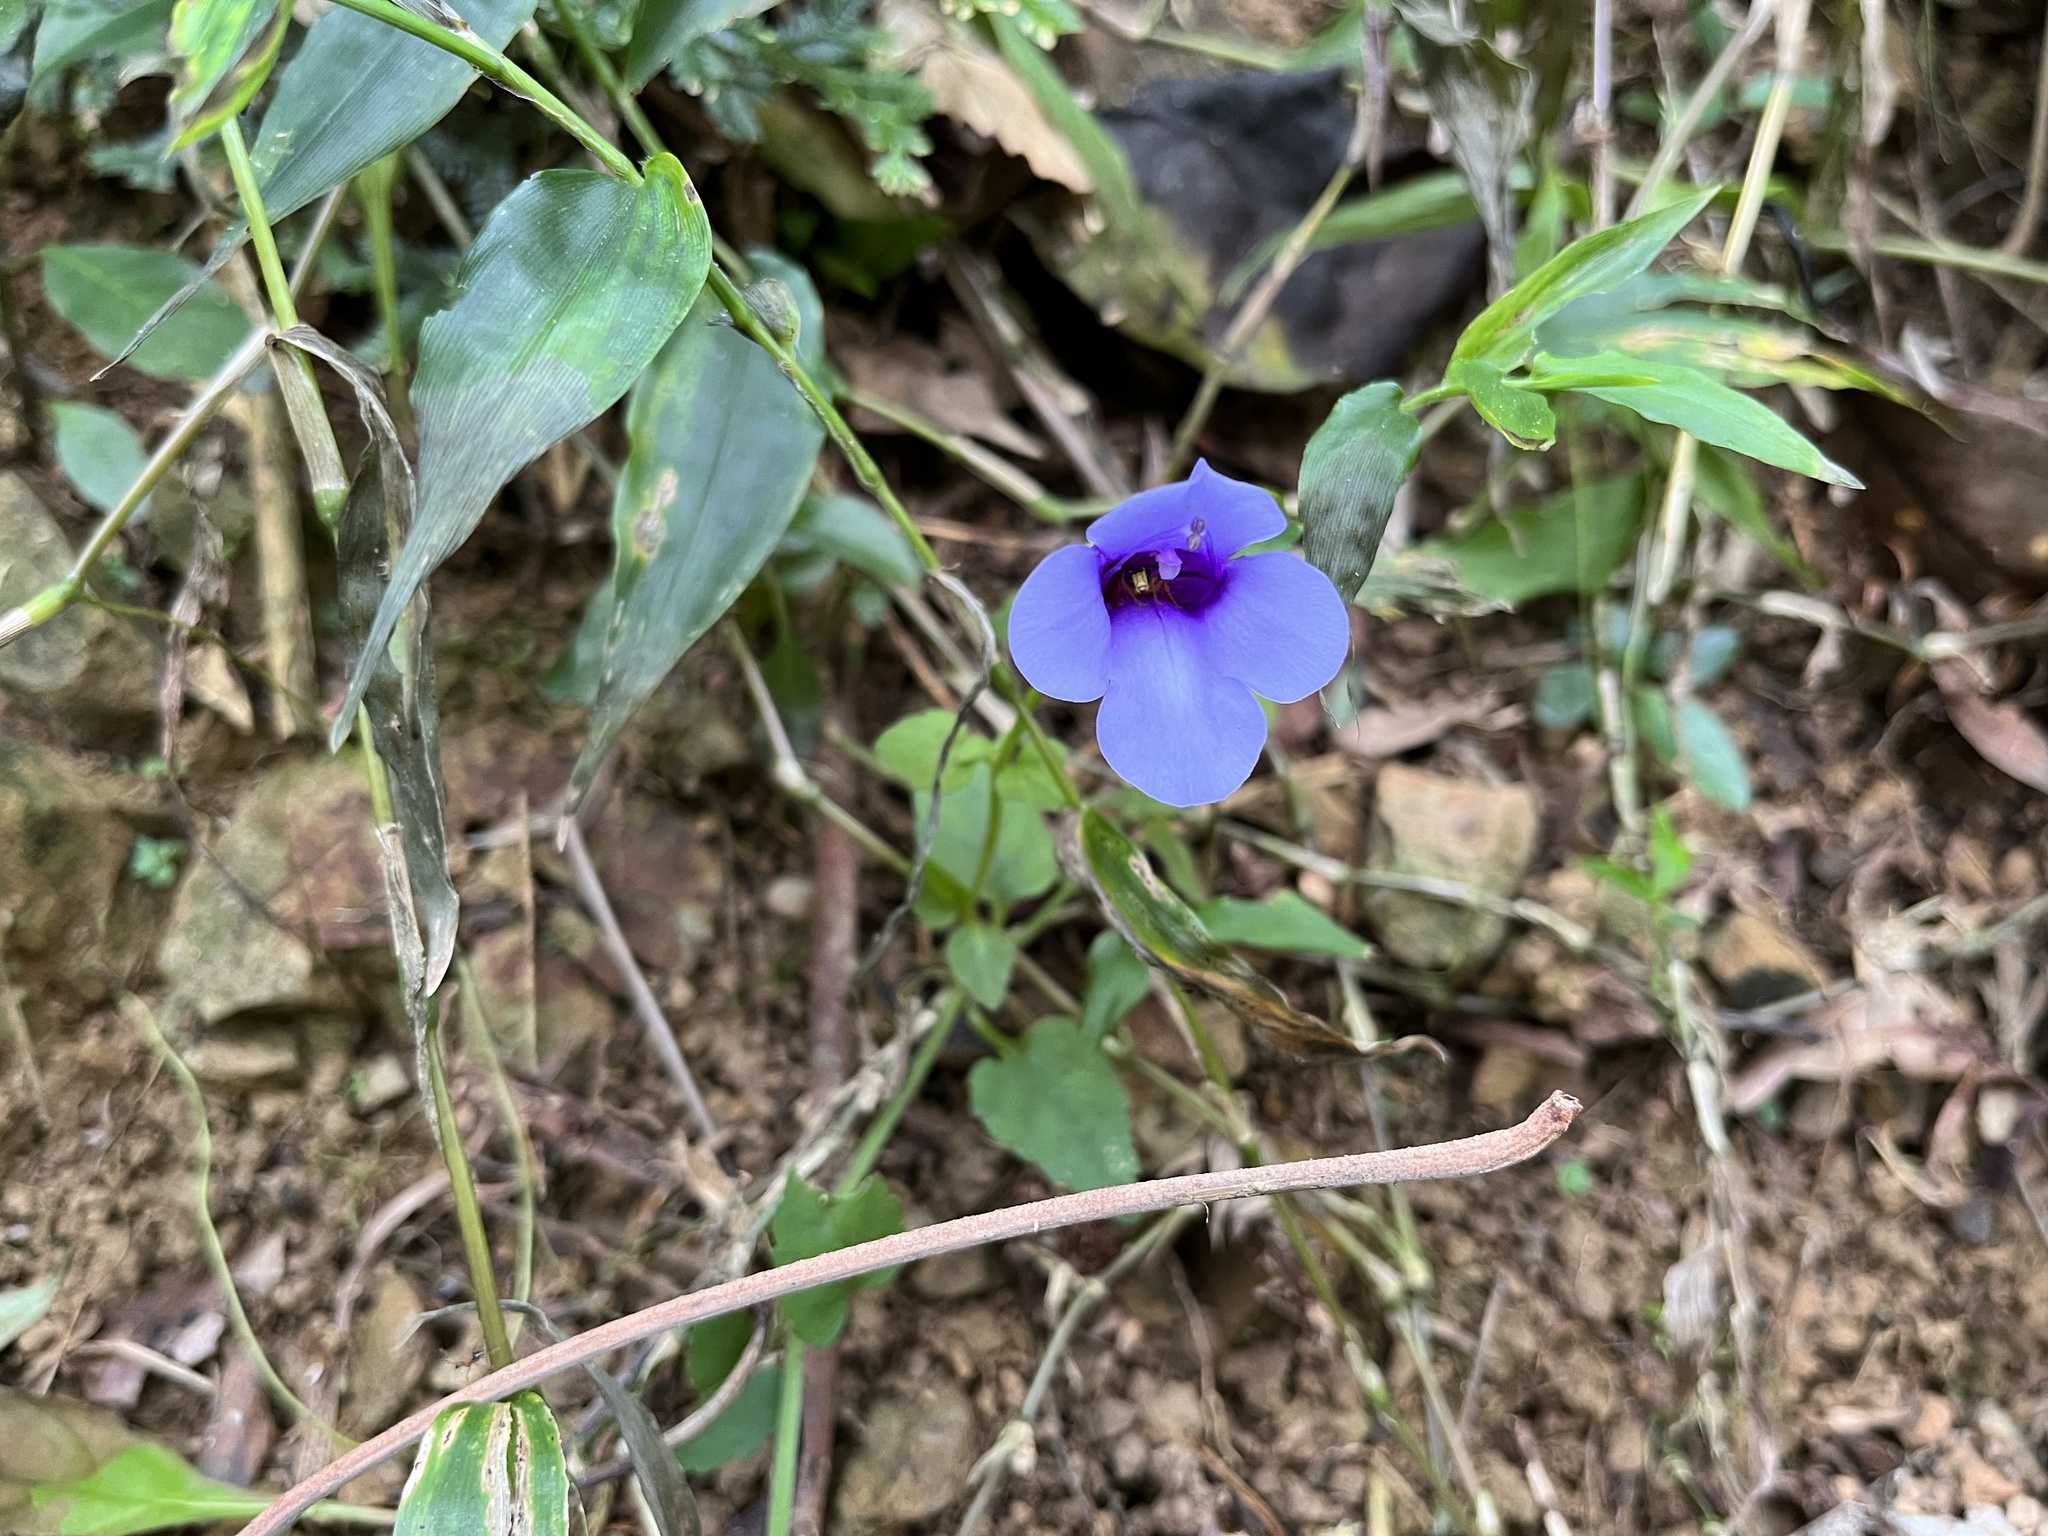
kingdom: Plantae
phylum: Tracheophyta
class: Magnoliopsida
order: Lamiales
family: Linderniaceae
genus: Torenia
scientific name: Torenia concolor
